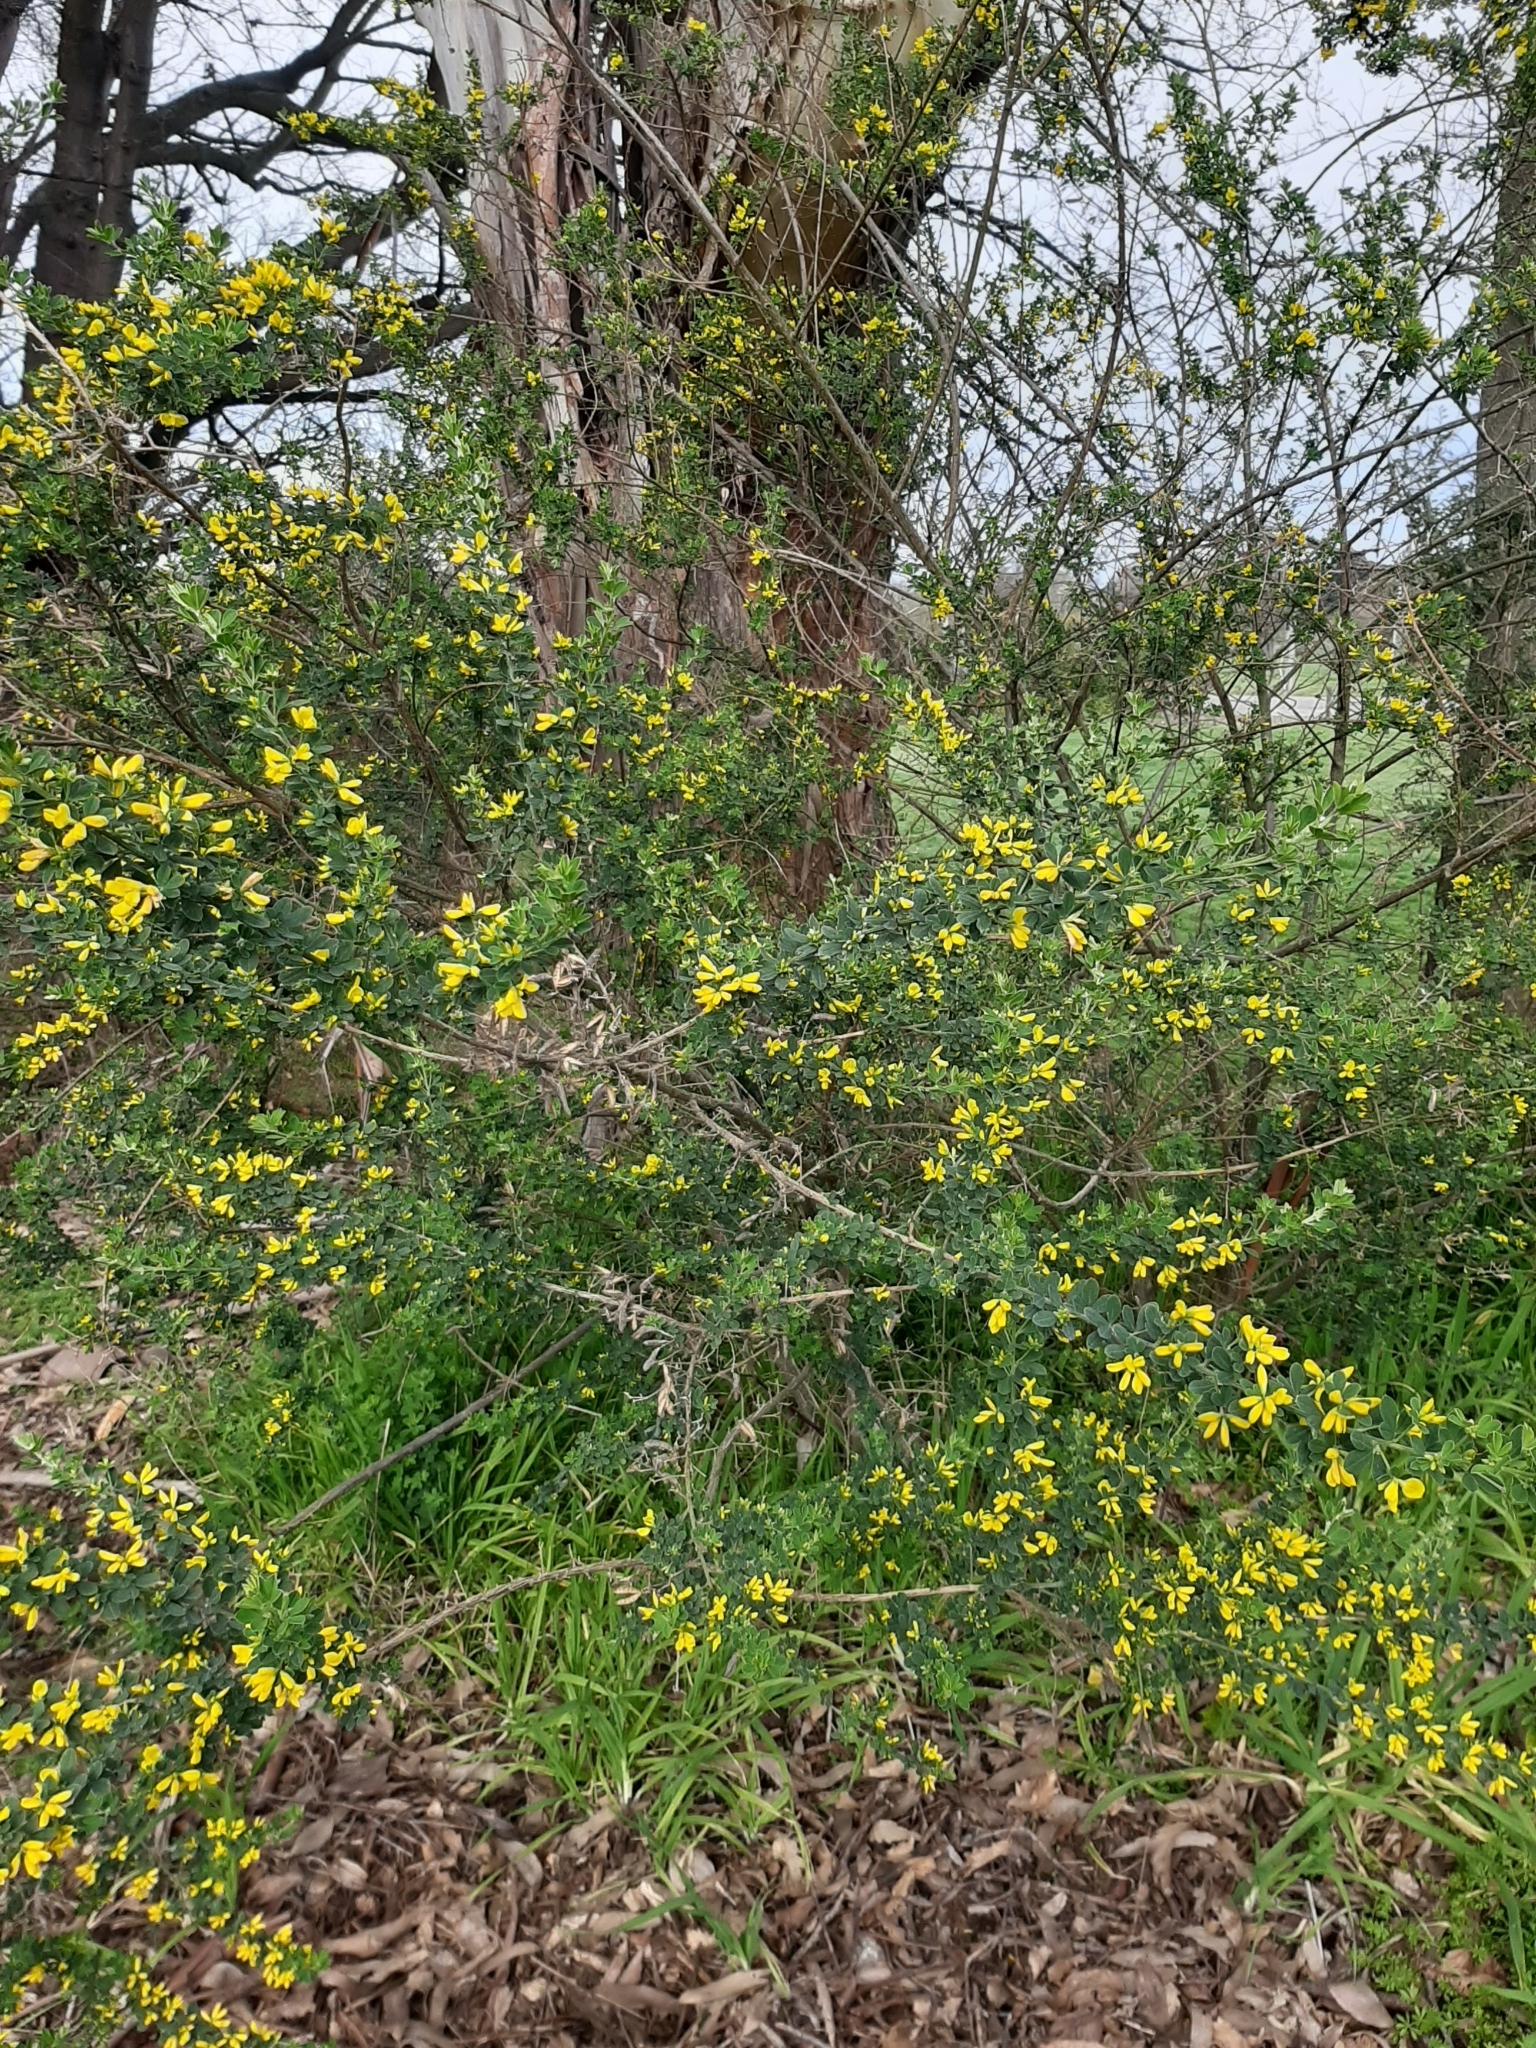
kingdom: Plantae
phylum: Tracheophyta
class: Magnoliopsida
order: Fabales
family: Fabaceae
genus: Genista
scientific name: Genista monspessulana
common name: Montpellier broom
